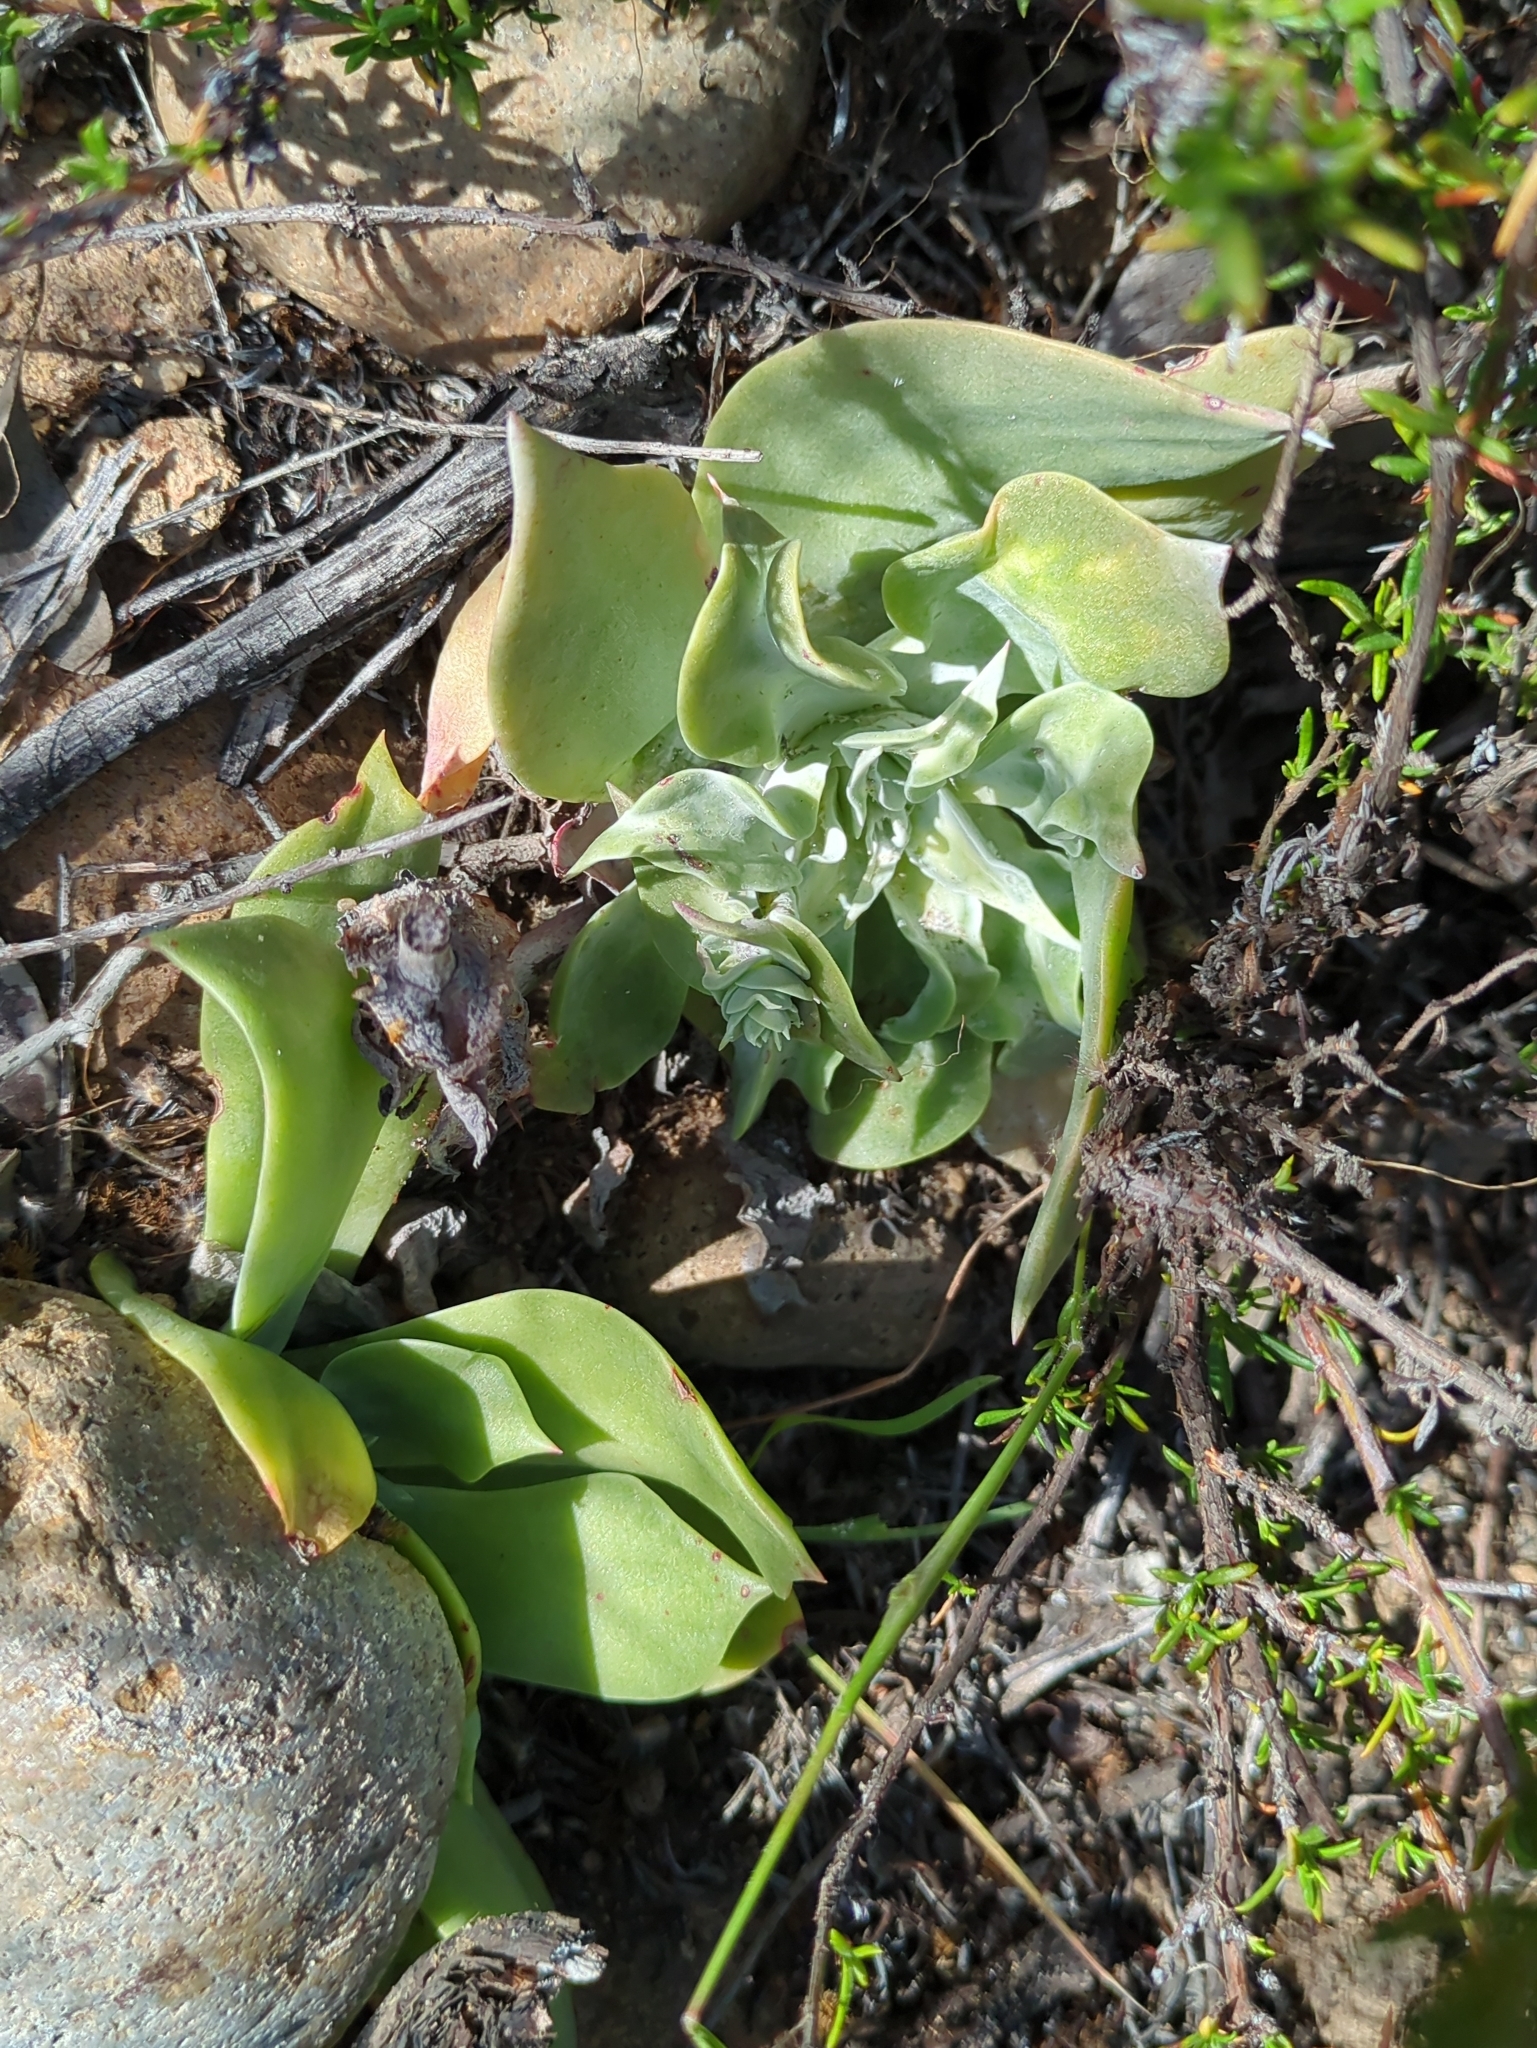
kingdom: Plantae
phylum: Tracheophyta
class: Magnoliopsida
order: Saxifragales
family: Crassulaceae
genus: Dudleya
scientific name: Dudleya pulverulenta
